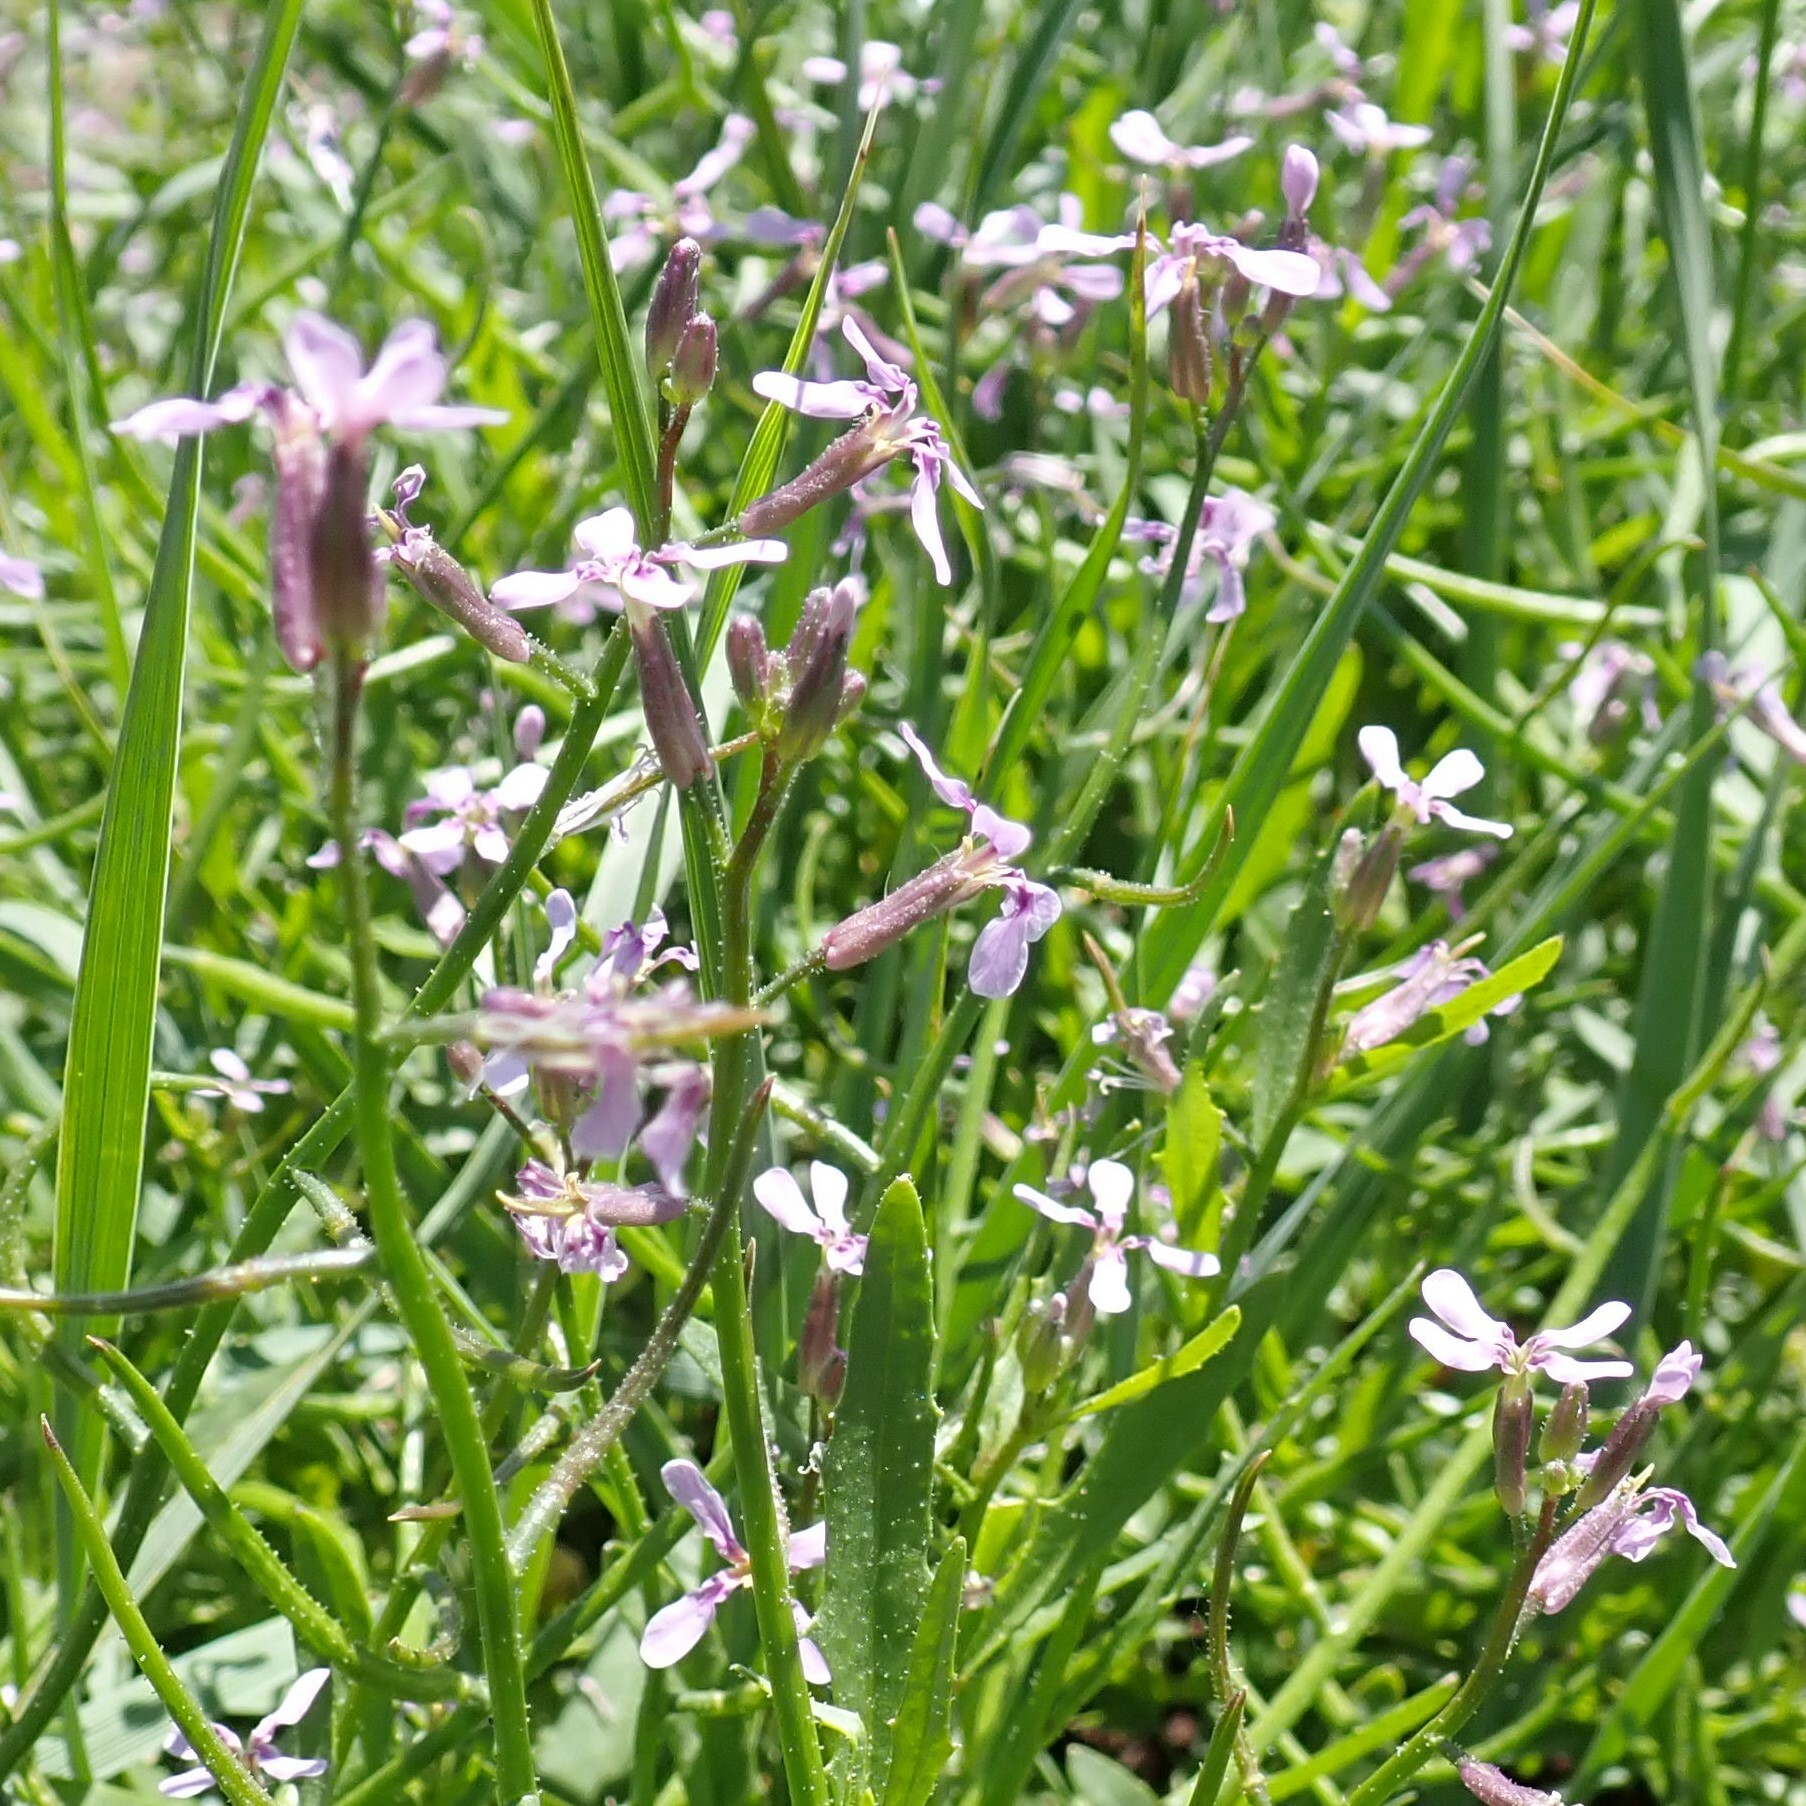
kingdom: Plantae
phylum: Tracheophyta
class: Magnoliopsida
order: Brassicales
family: Brassicaceae
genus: Chorispora
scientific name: Chorispora tenella
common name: Crossflower
